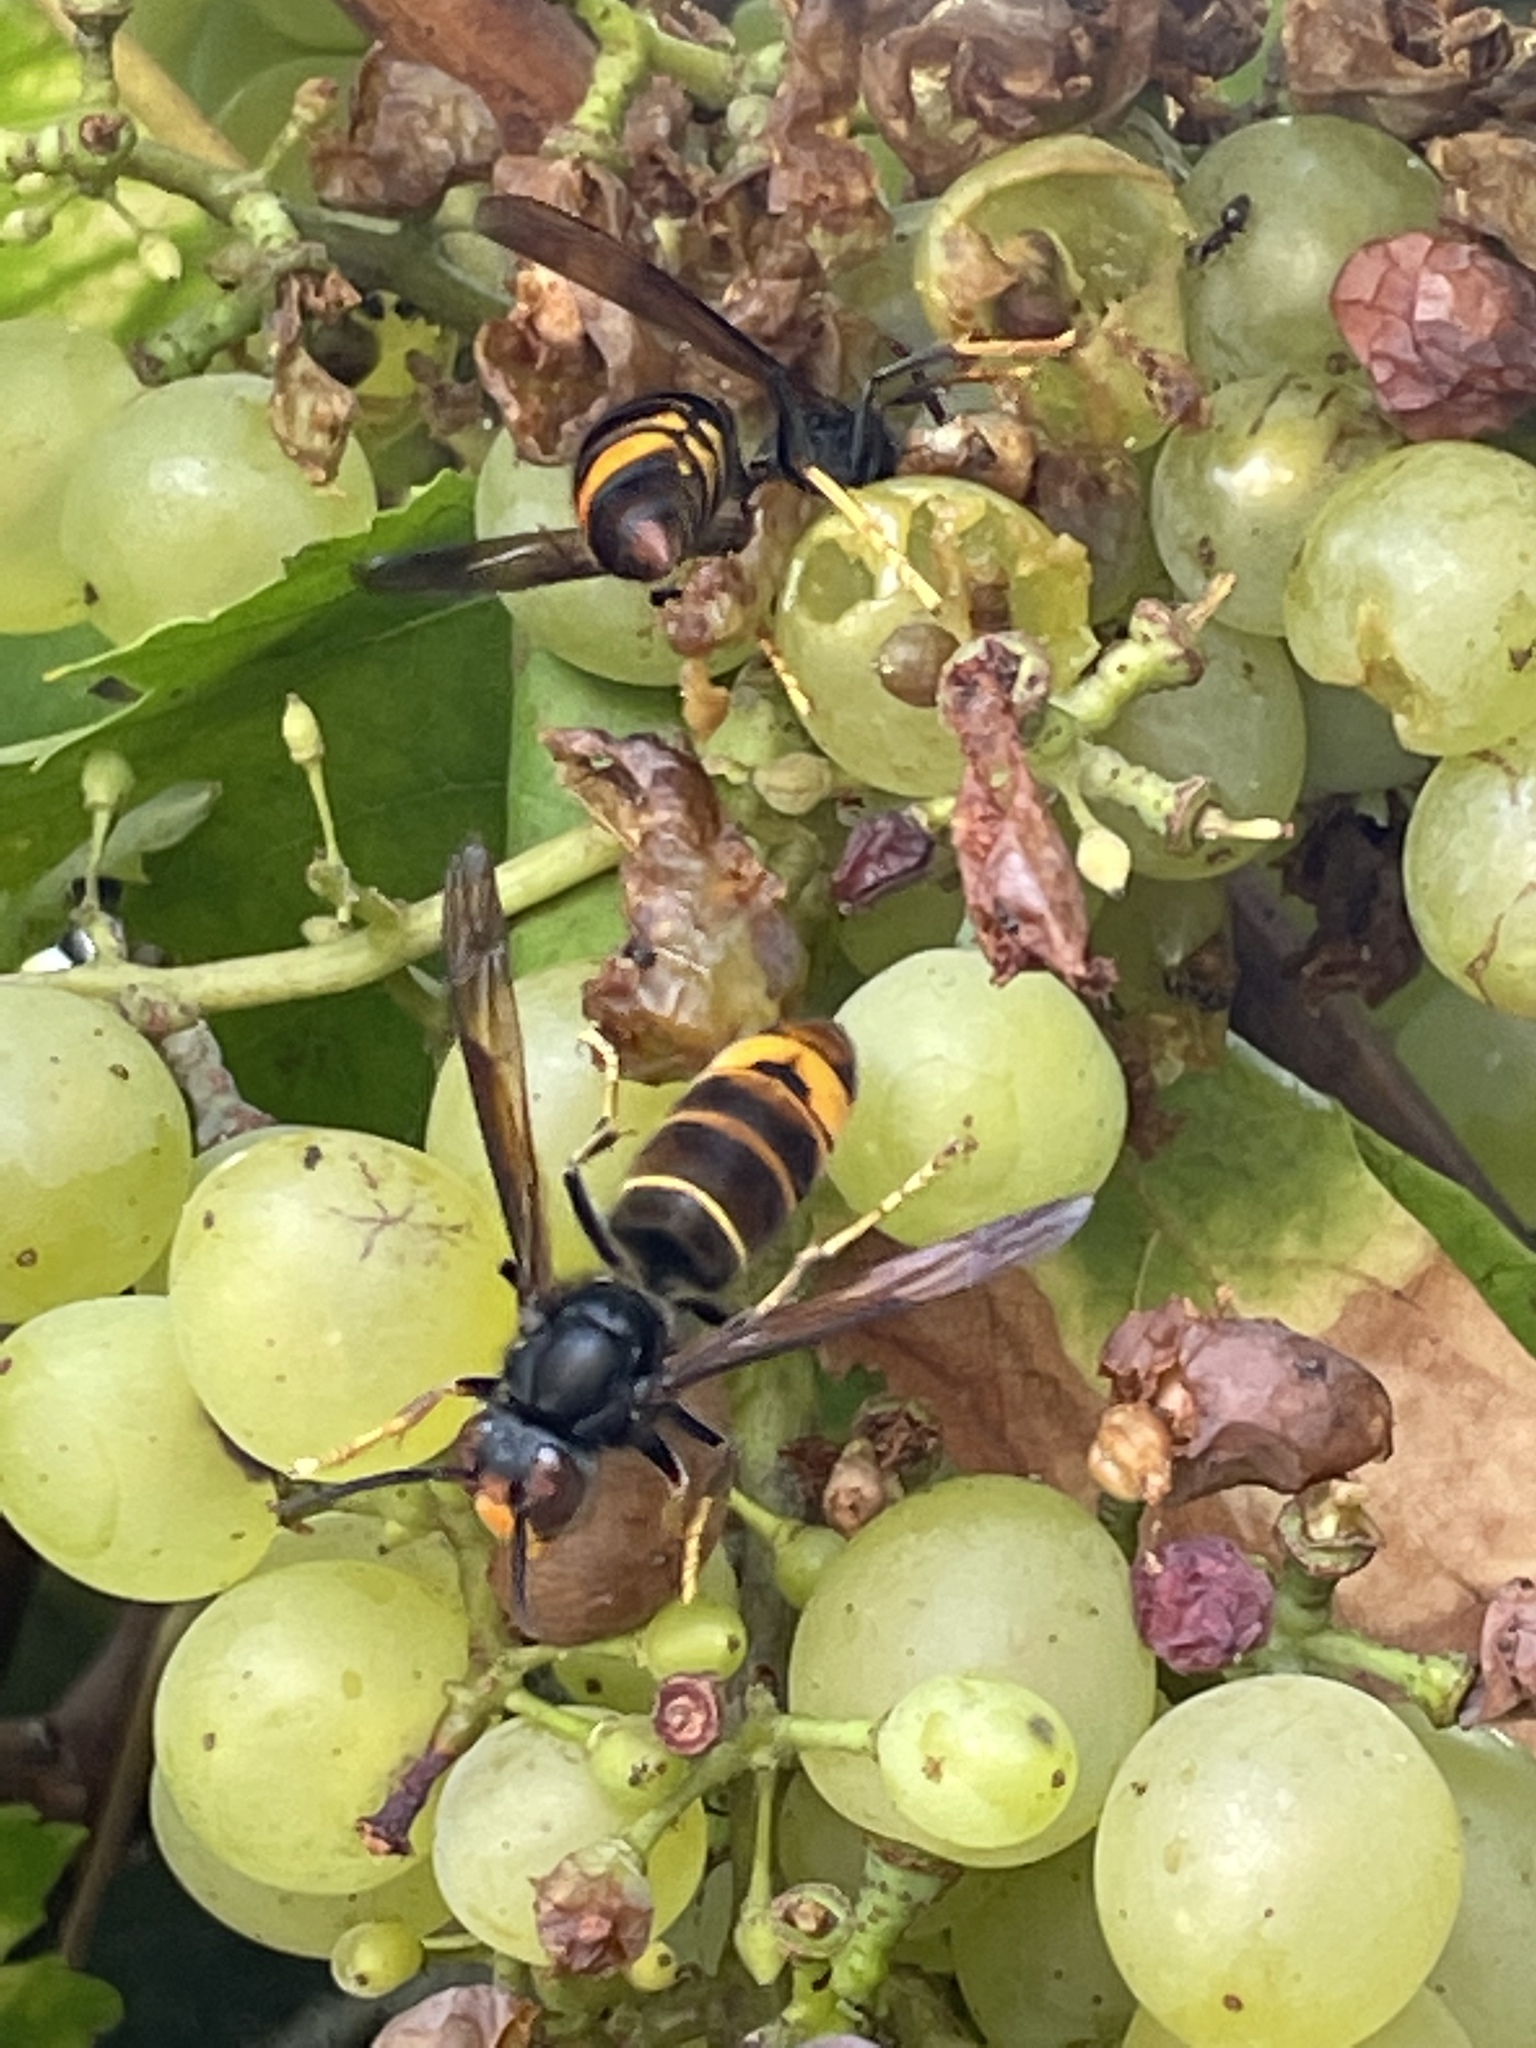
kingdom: Animalia
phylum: Arthropoda
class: Insecta
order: Hymenoptera
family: Vespidae
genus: Vespa
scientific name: Vespa velutina
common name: Asian hornet
